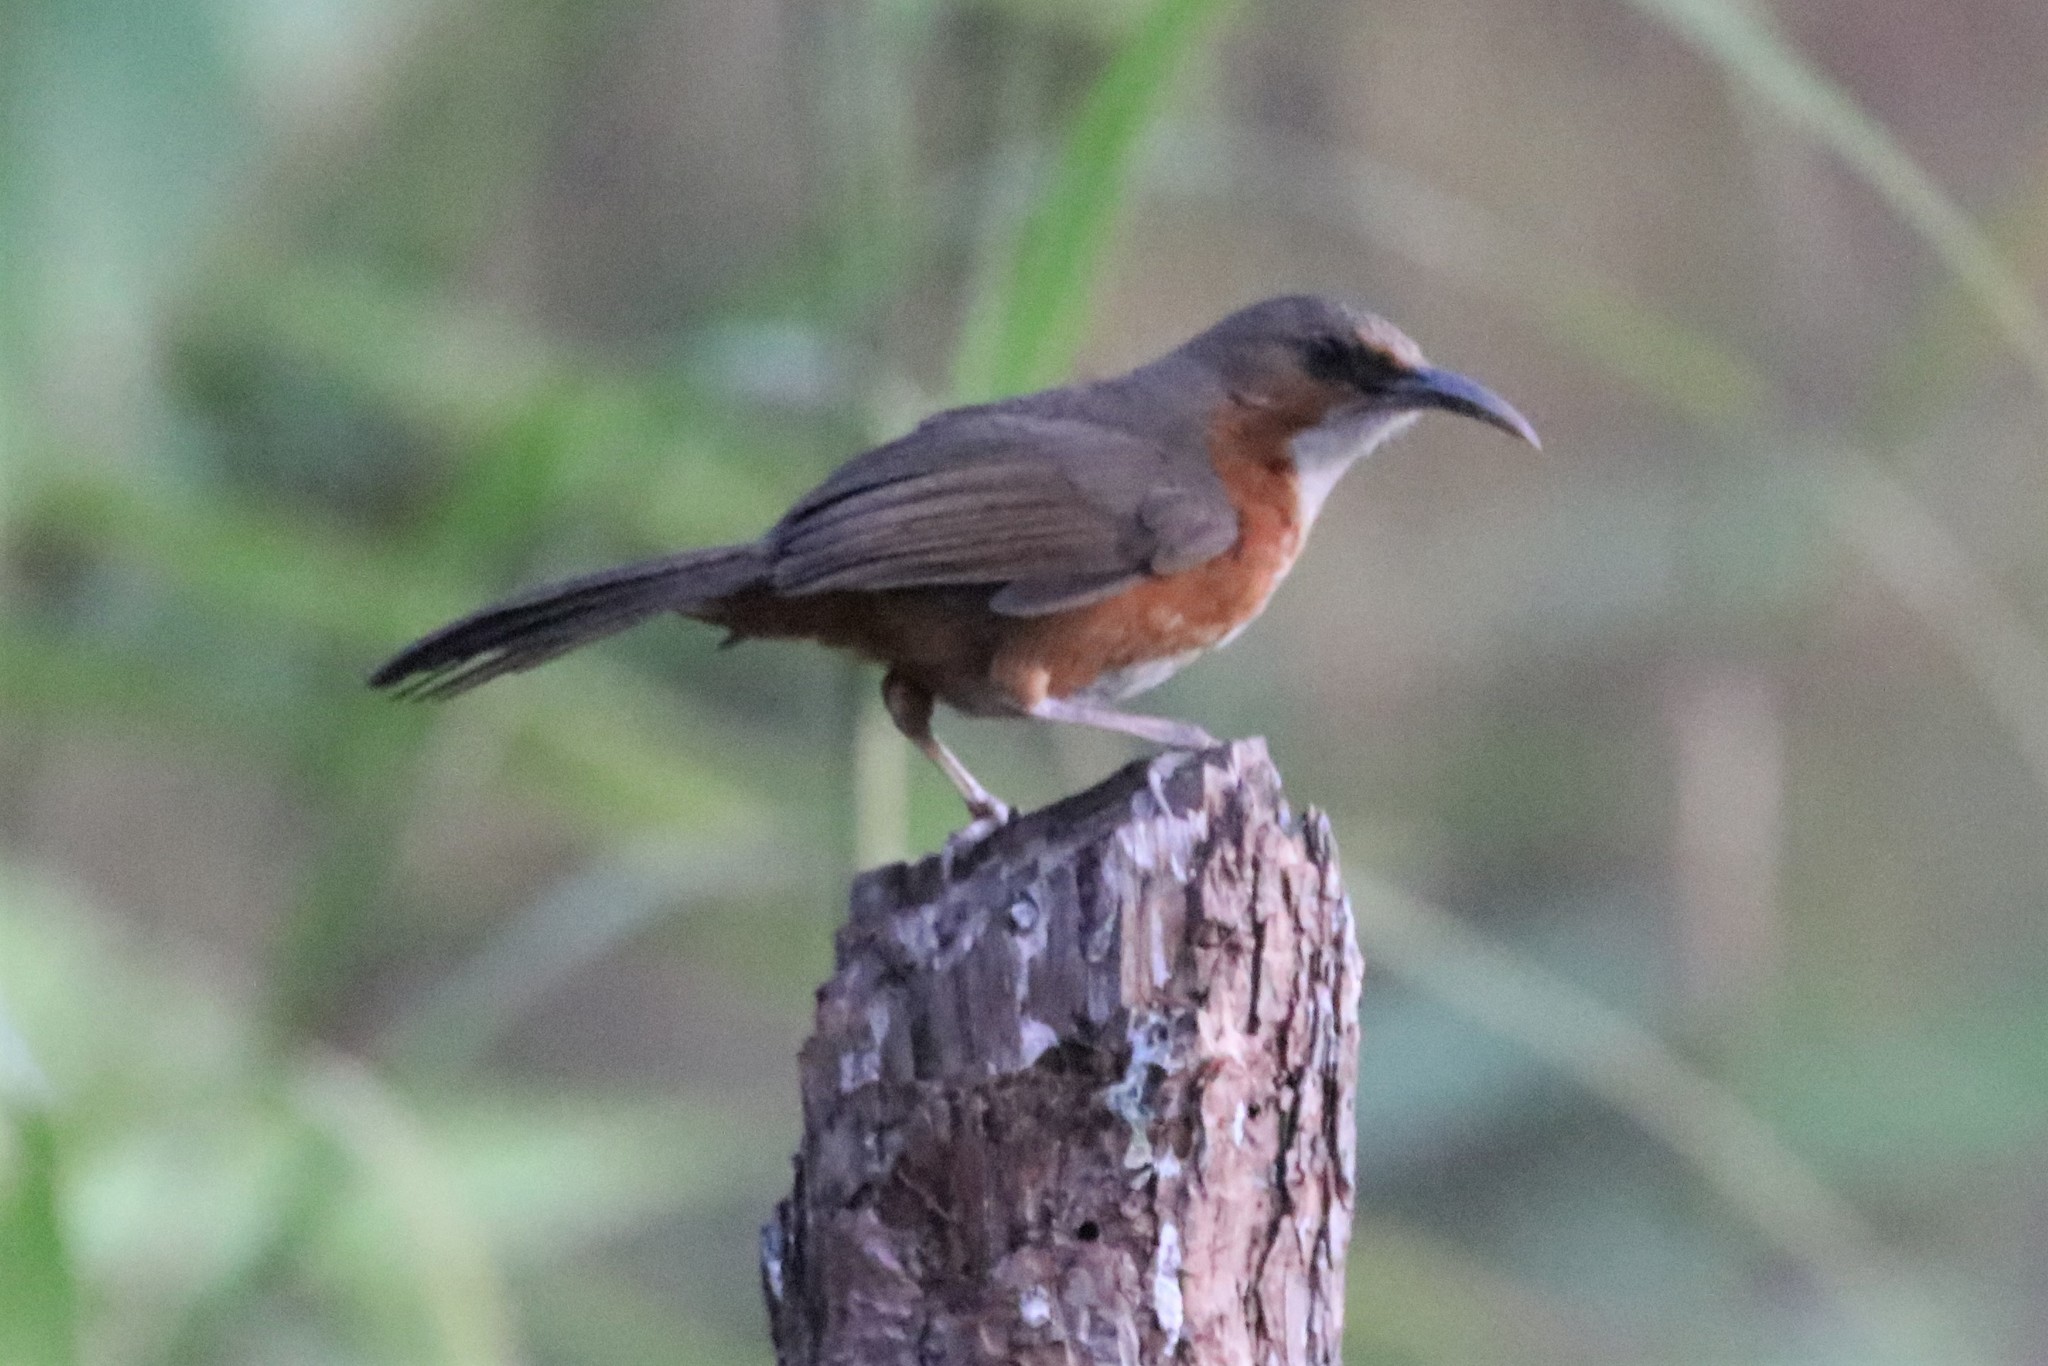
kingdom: Animalia
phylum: Chordata
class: Aves
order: Passeriformes
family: Timaliidae
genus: Pomatorhinus
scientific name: Pomatorhinus erythrogenys
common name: Rusty-cheeked scimitar babbler
